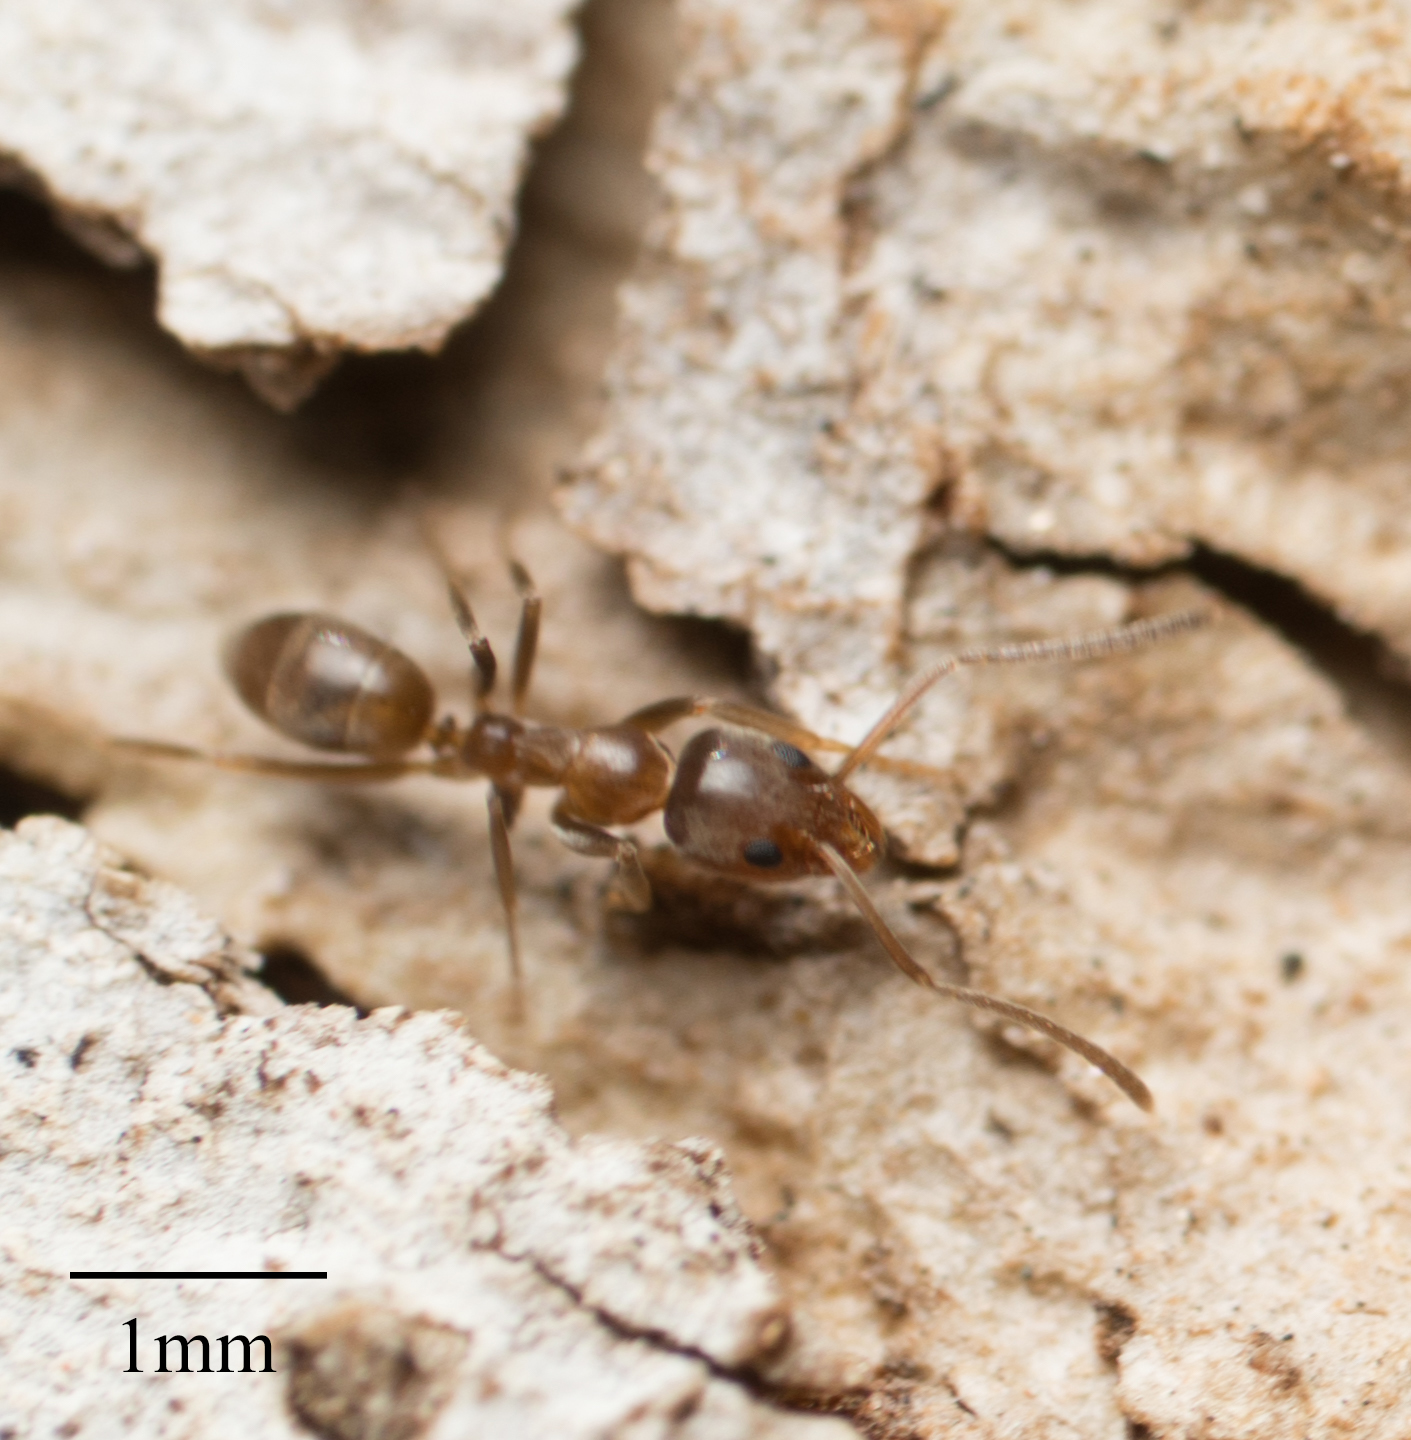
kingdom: Animalia
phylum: Arthropoda
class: Insecta
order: Hymenoptera
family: Formicidae
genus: Linepithema
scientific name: Linepithema humile
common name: Argentine ant
